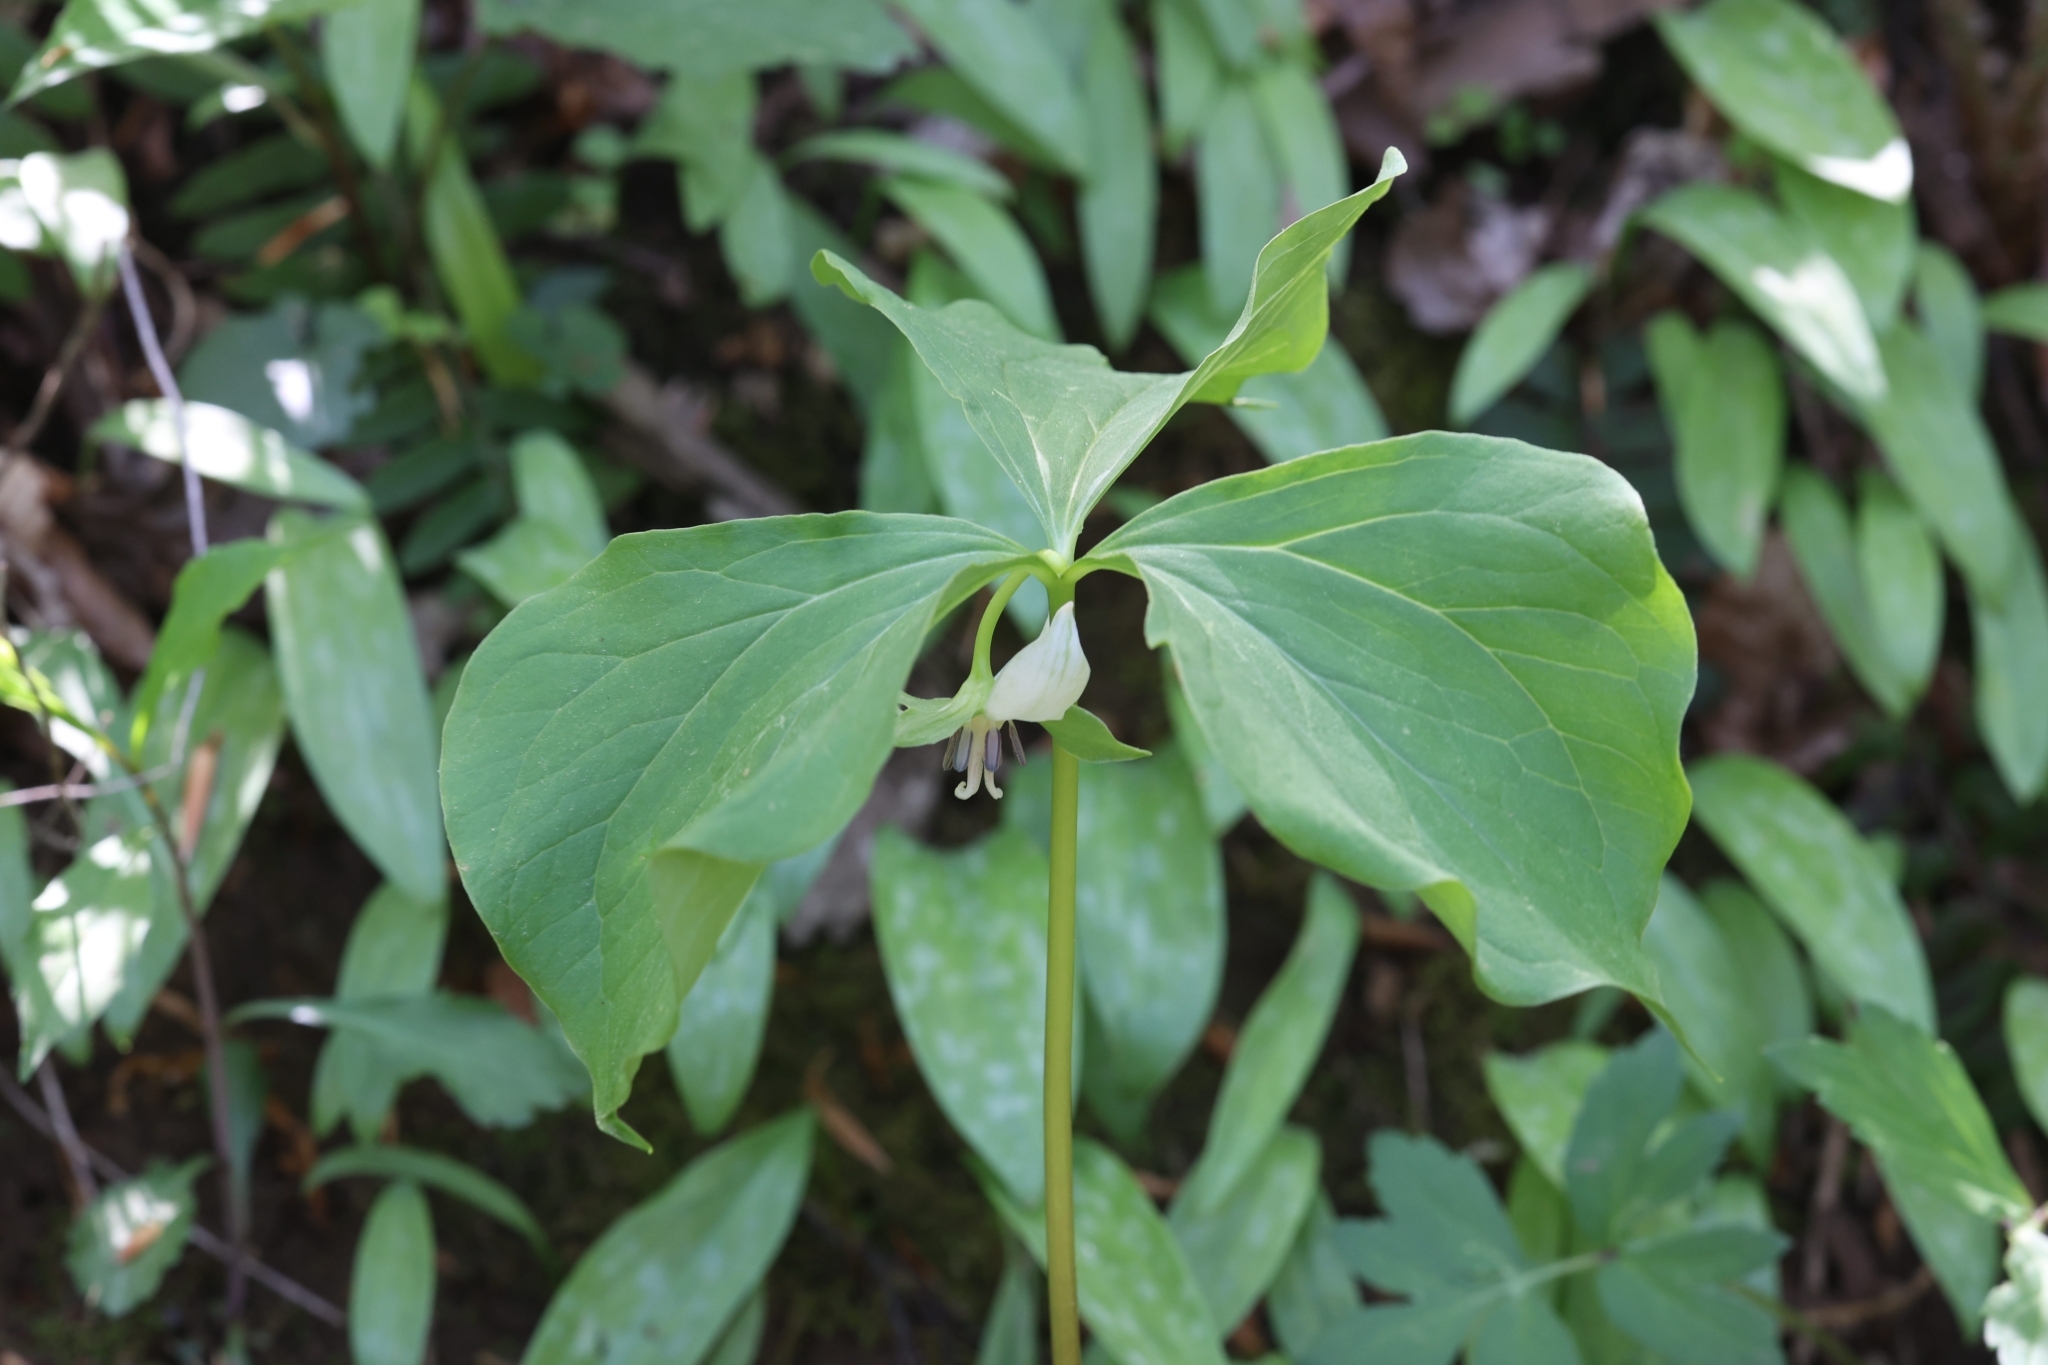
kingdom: Plantae
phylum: Tracheophyta
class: Liliopsida
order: Liliales
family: Melanthiaceae
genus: Trillium
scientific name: Trillium cernuum
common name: Nodding trillium
